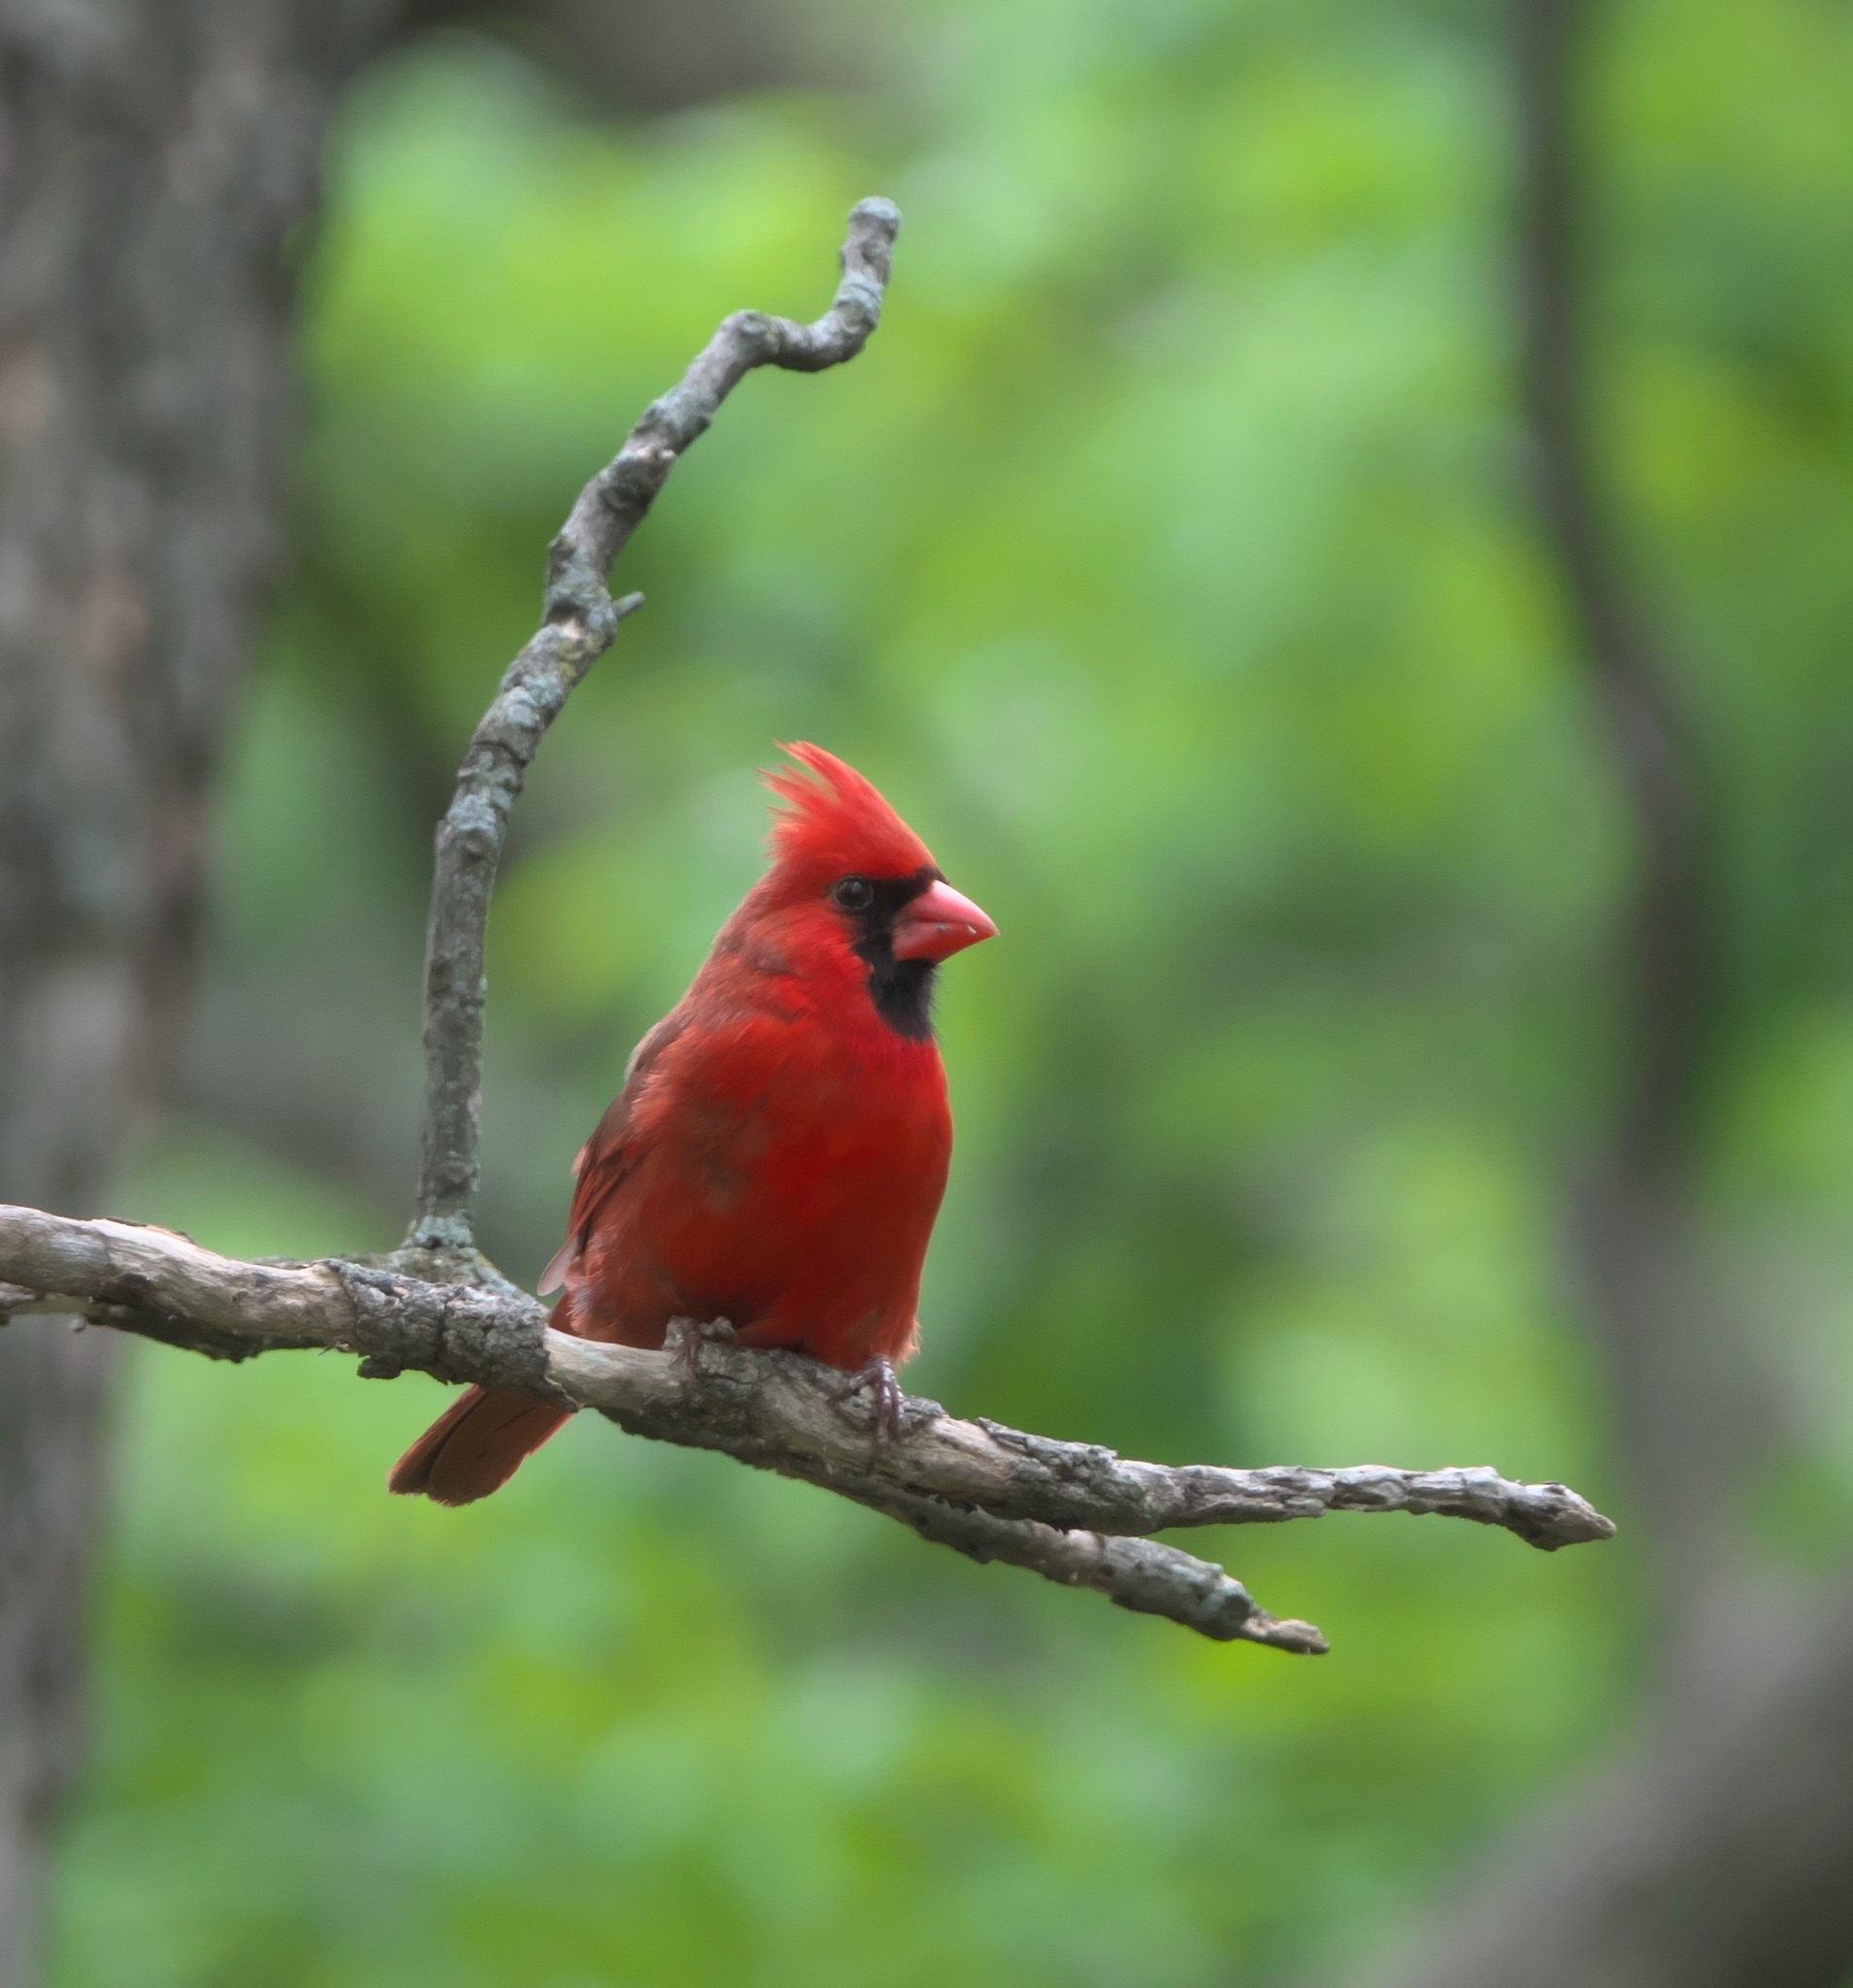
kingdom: Animalia
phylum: Chordata
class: Aves
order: Passeriformes
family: Cardinalidae
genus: Cardinalis
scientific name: Cardinalis cardinalis
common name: Northern cardinal
